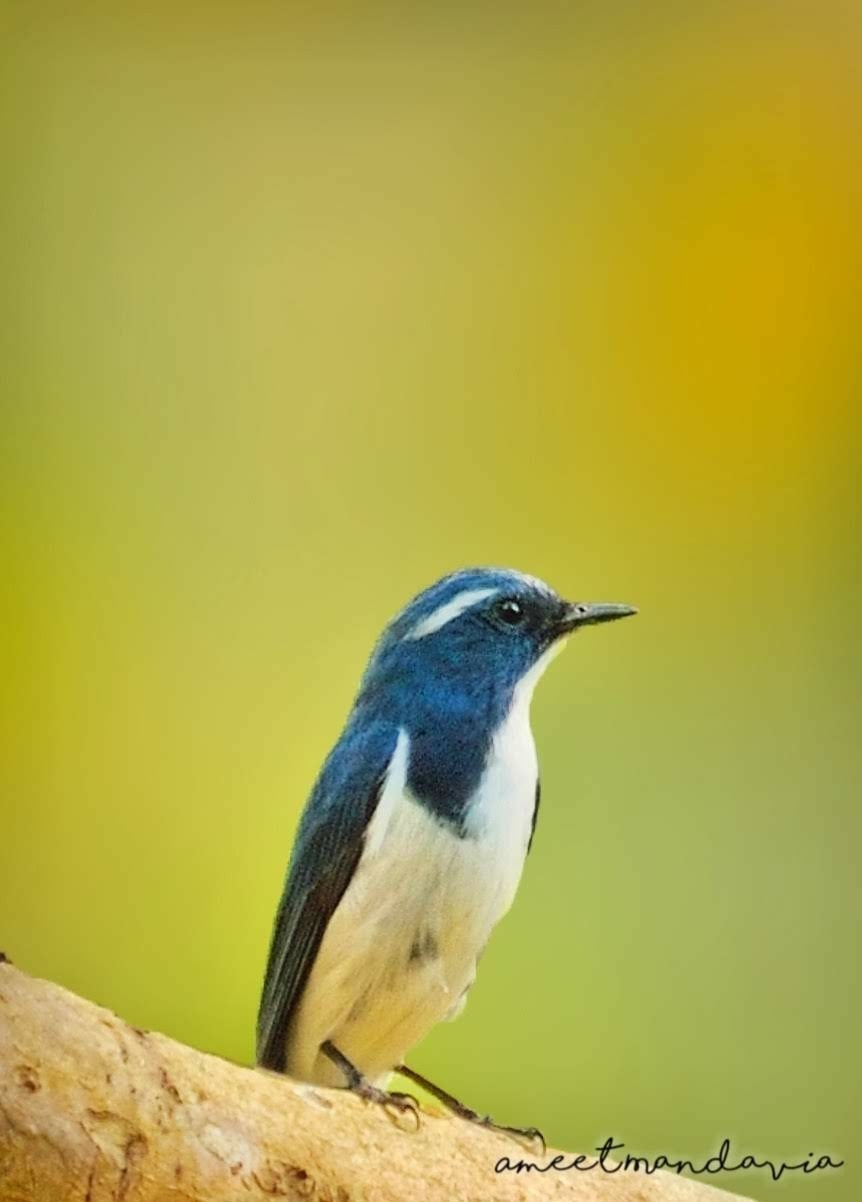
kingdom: Animalia
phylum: Chordata
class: Aves
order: Passeriformes
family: Muscicapidae
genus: Ficedula
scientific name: Ficedula superciliaris
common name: Ultramarine flycatcher
